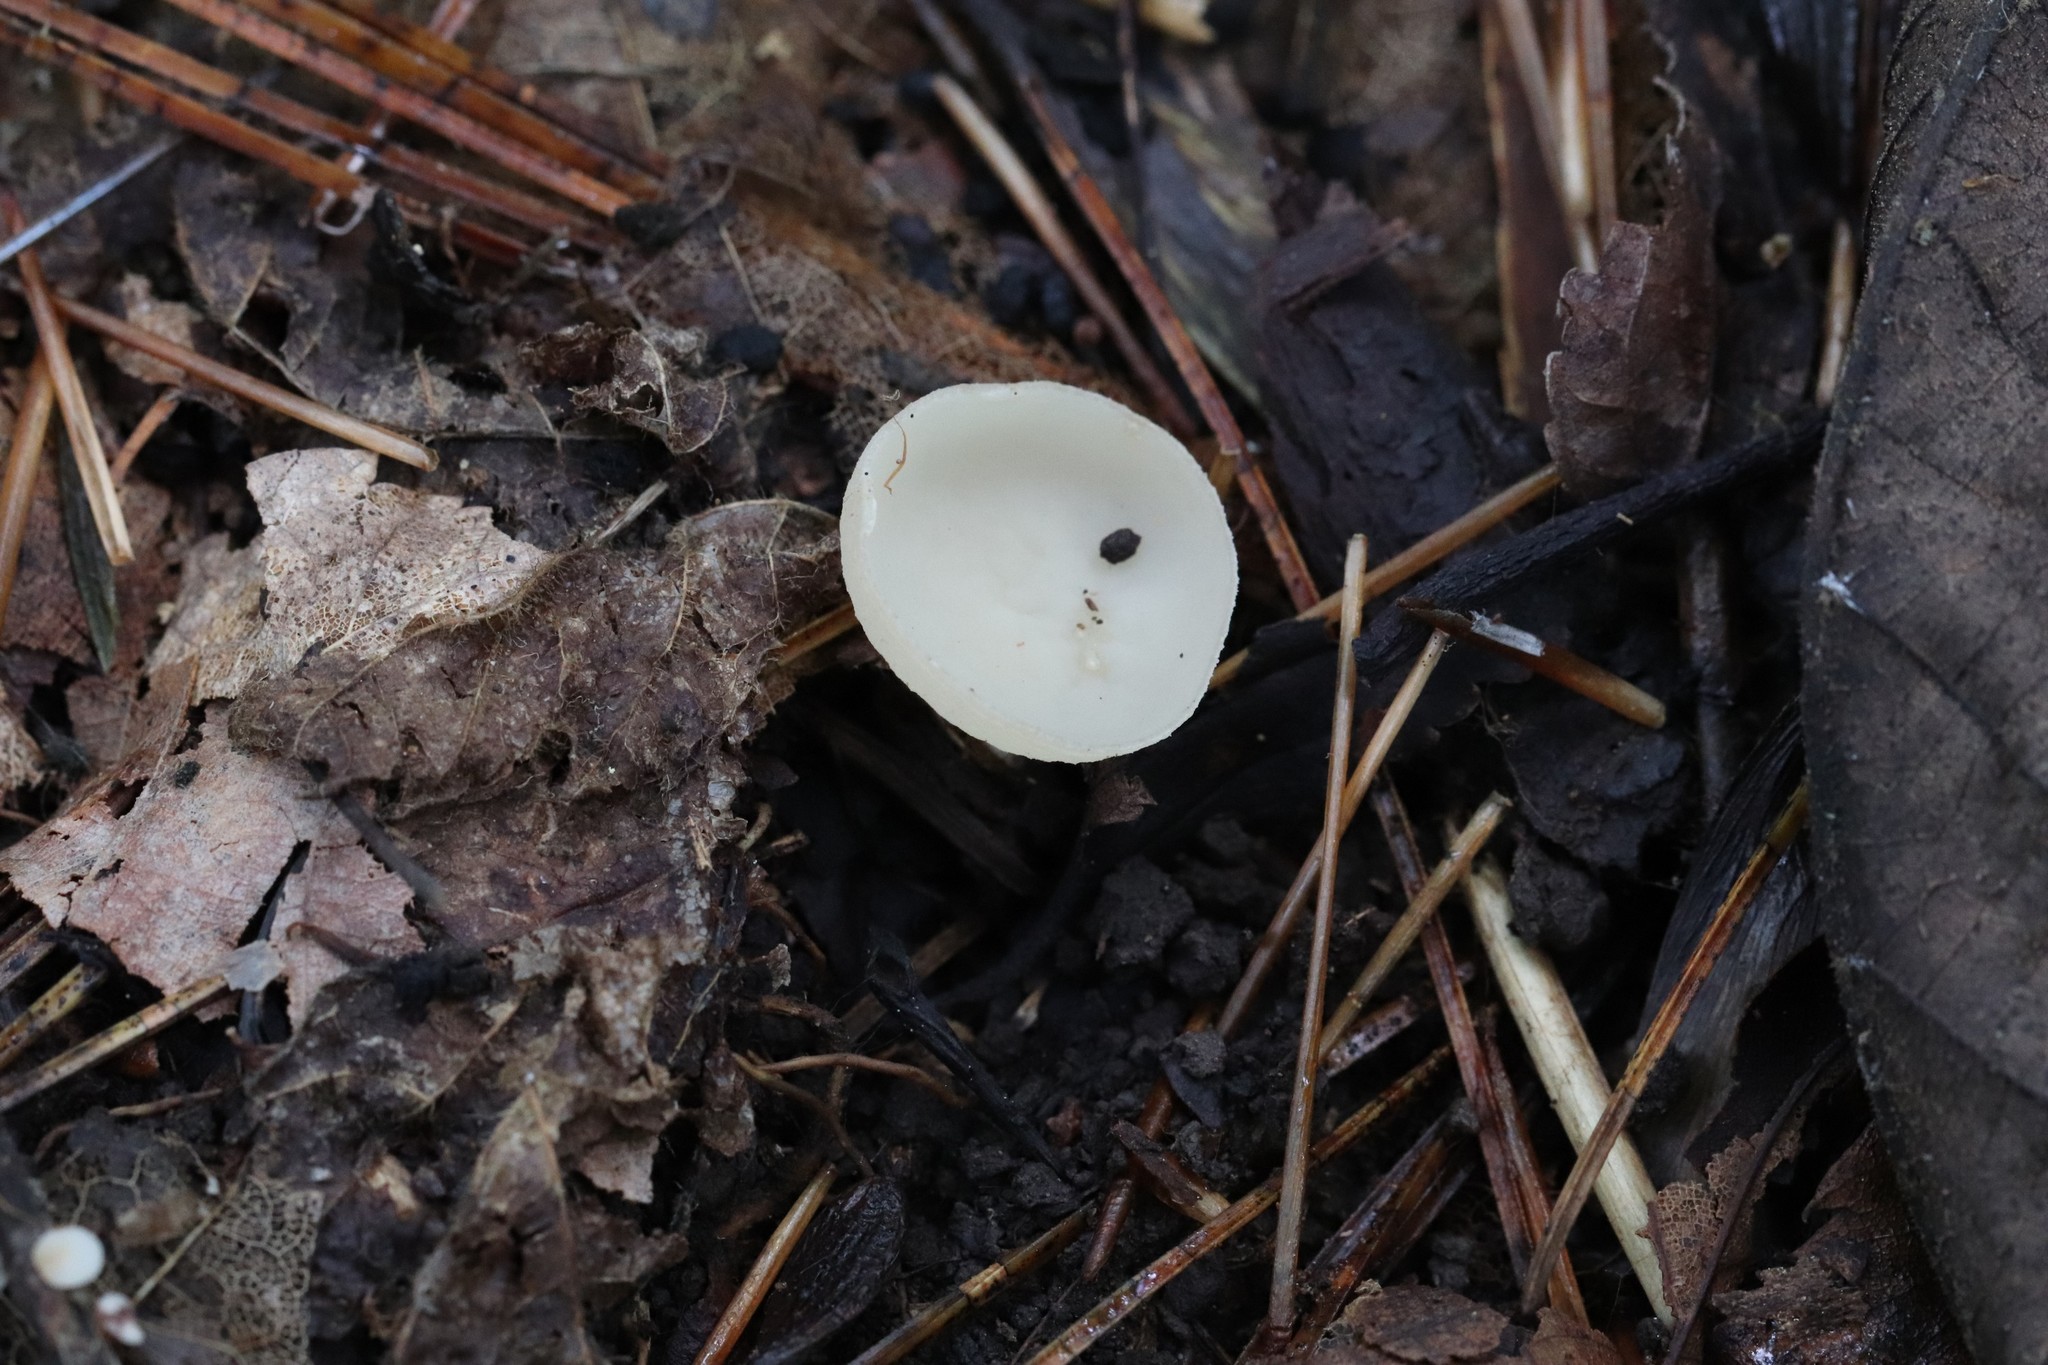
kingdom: Fungi
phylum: Ascomycota
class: Pezizomycetes
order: Pezizales
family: Sarcoscyphaceae
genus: Sarcoscypha
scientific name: Sarcoscypha vassiljevae
